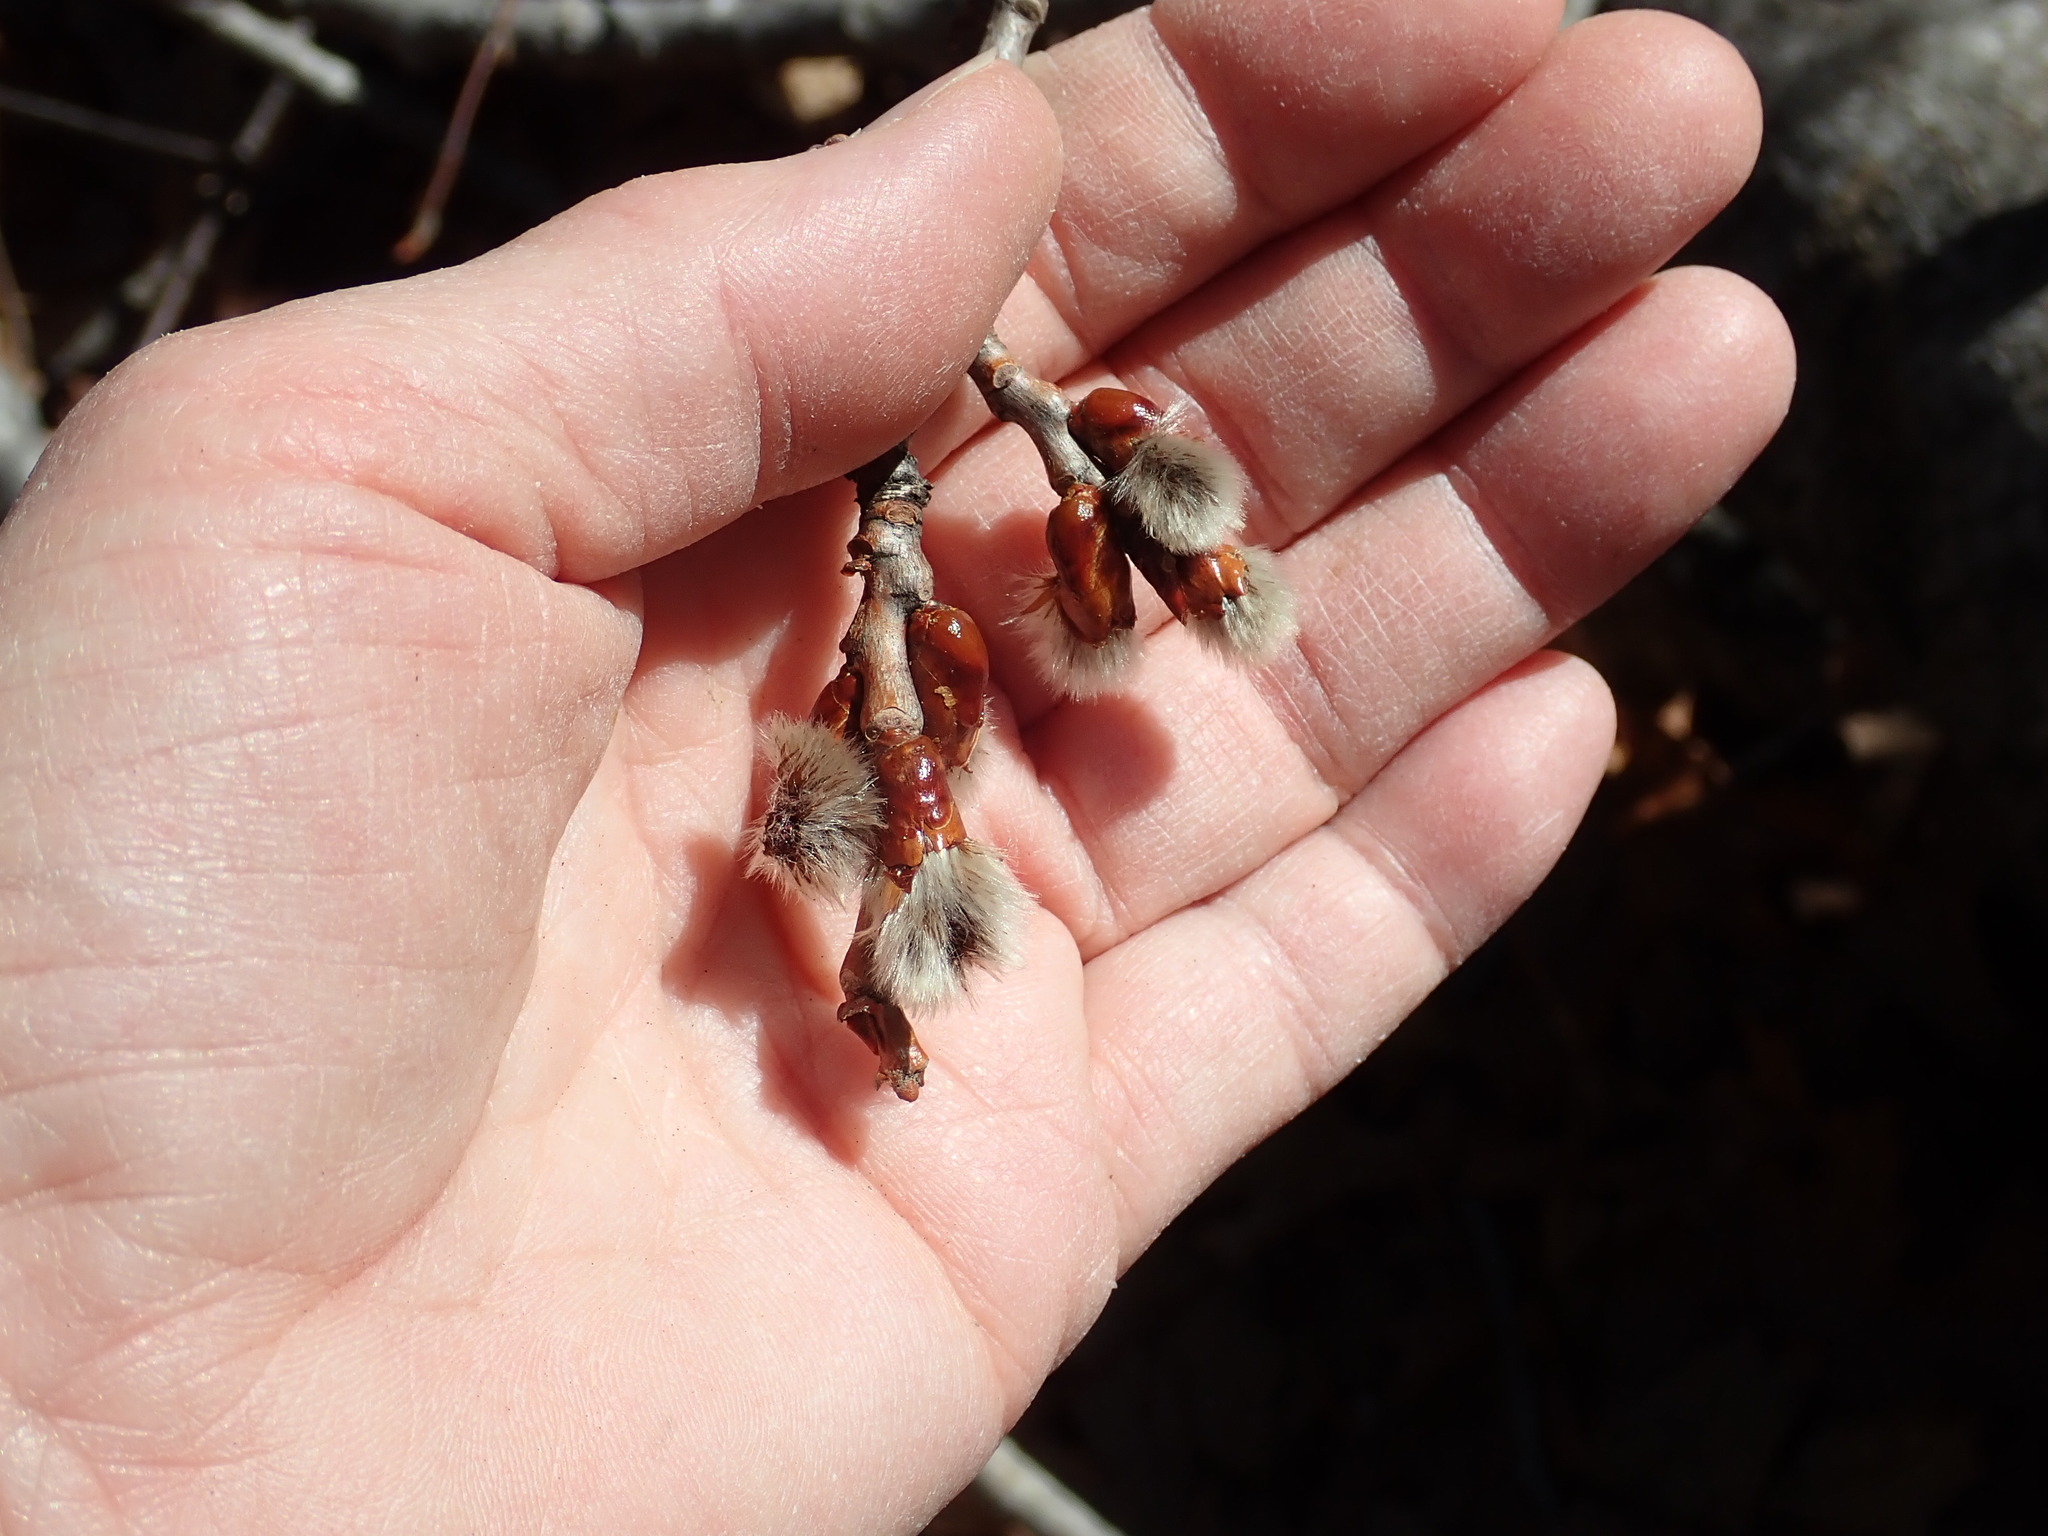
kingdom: Plantae
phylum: Tracheophyta
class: Magnoliopsida
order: Malpighiales
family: Salicaceae
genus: Populus
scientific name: Populus
